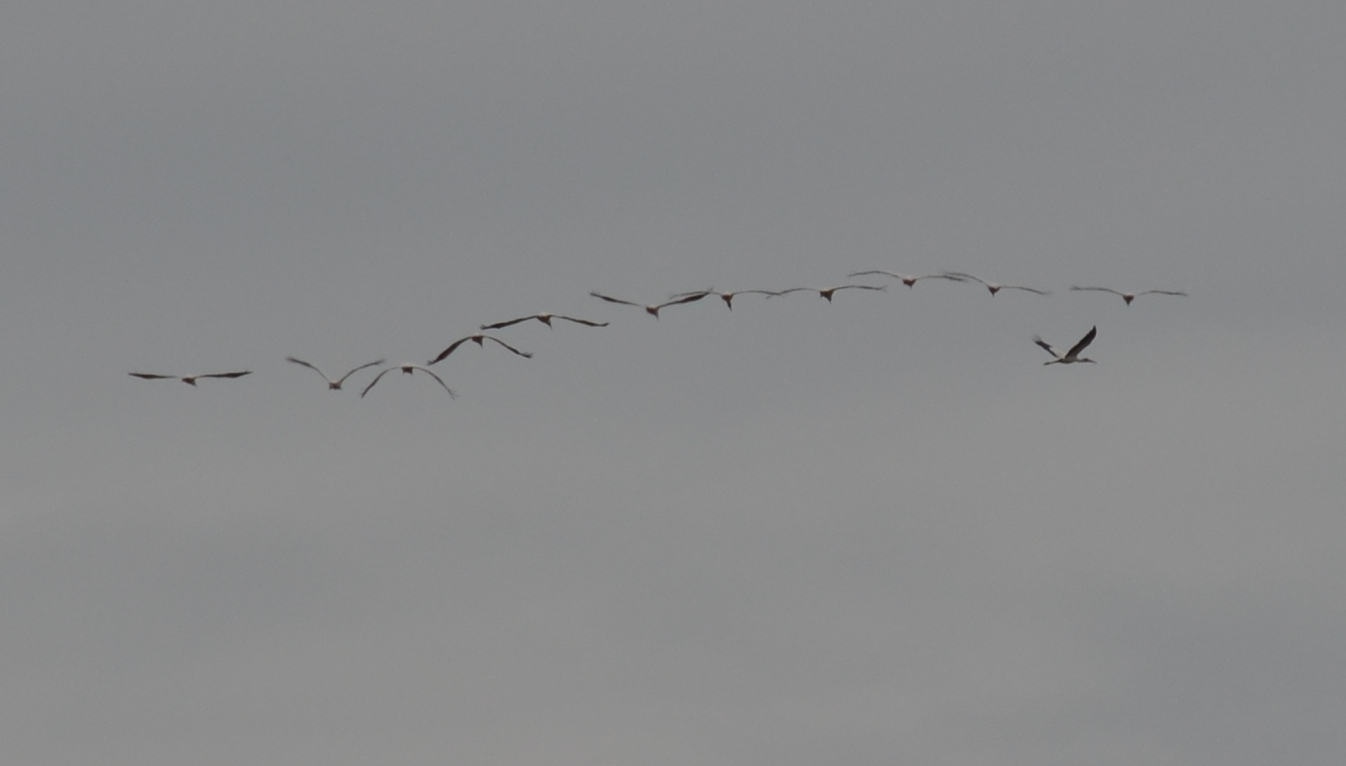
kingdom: Animalia
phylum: Chordata
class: Aves
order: Ciconiiformes
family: Ciconiidae
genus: Mycteria
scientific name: Mycteria americana
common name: Wood stork
